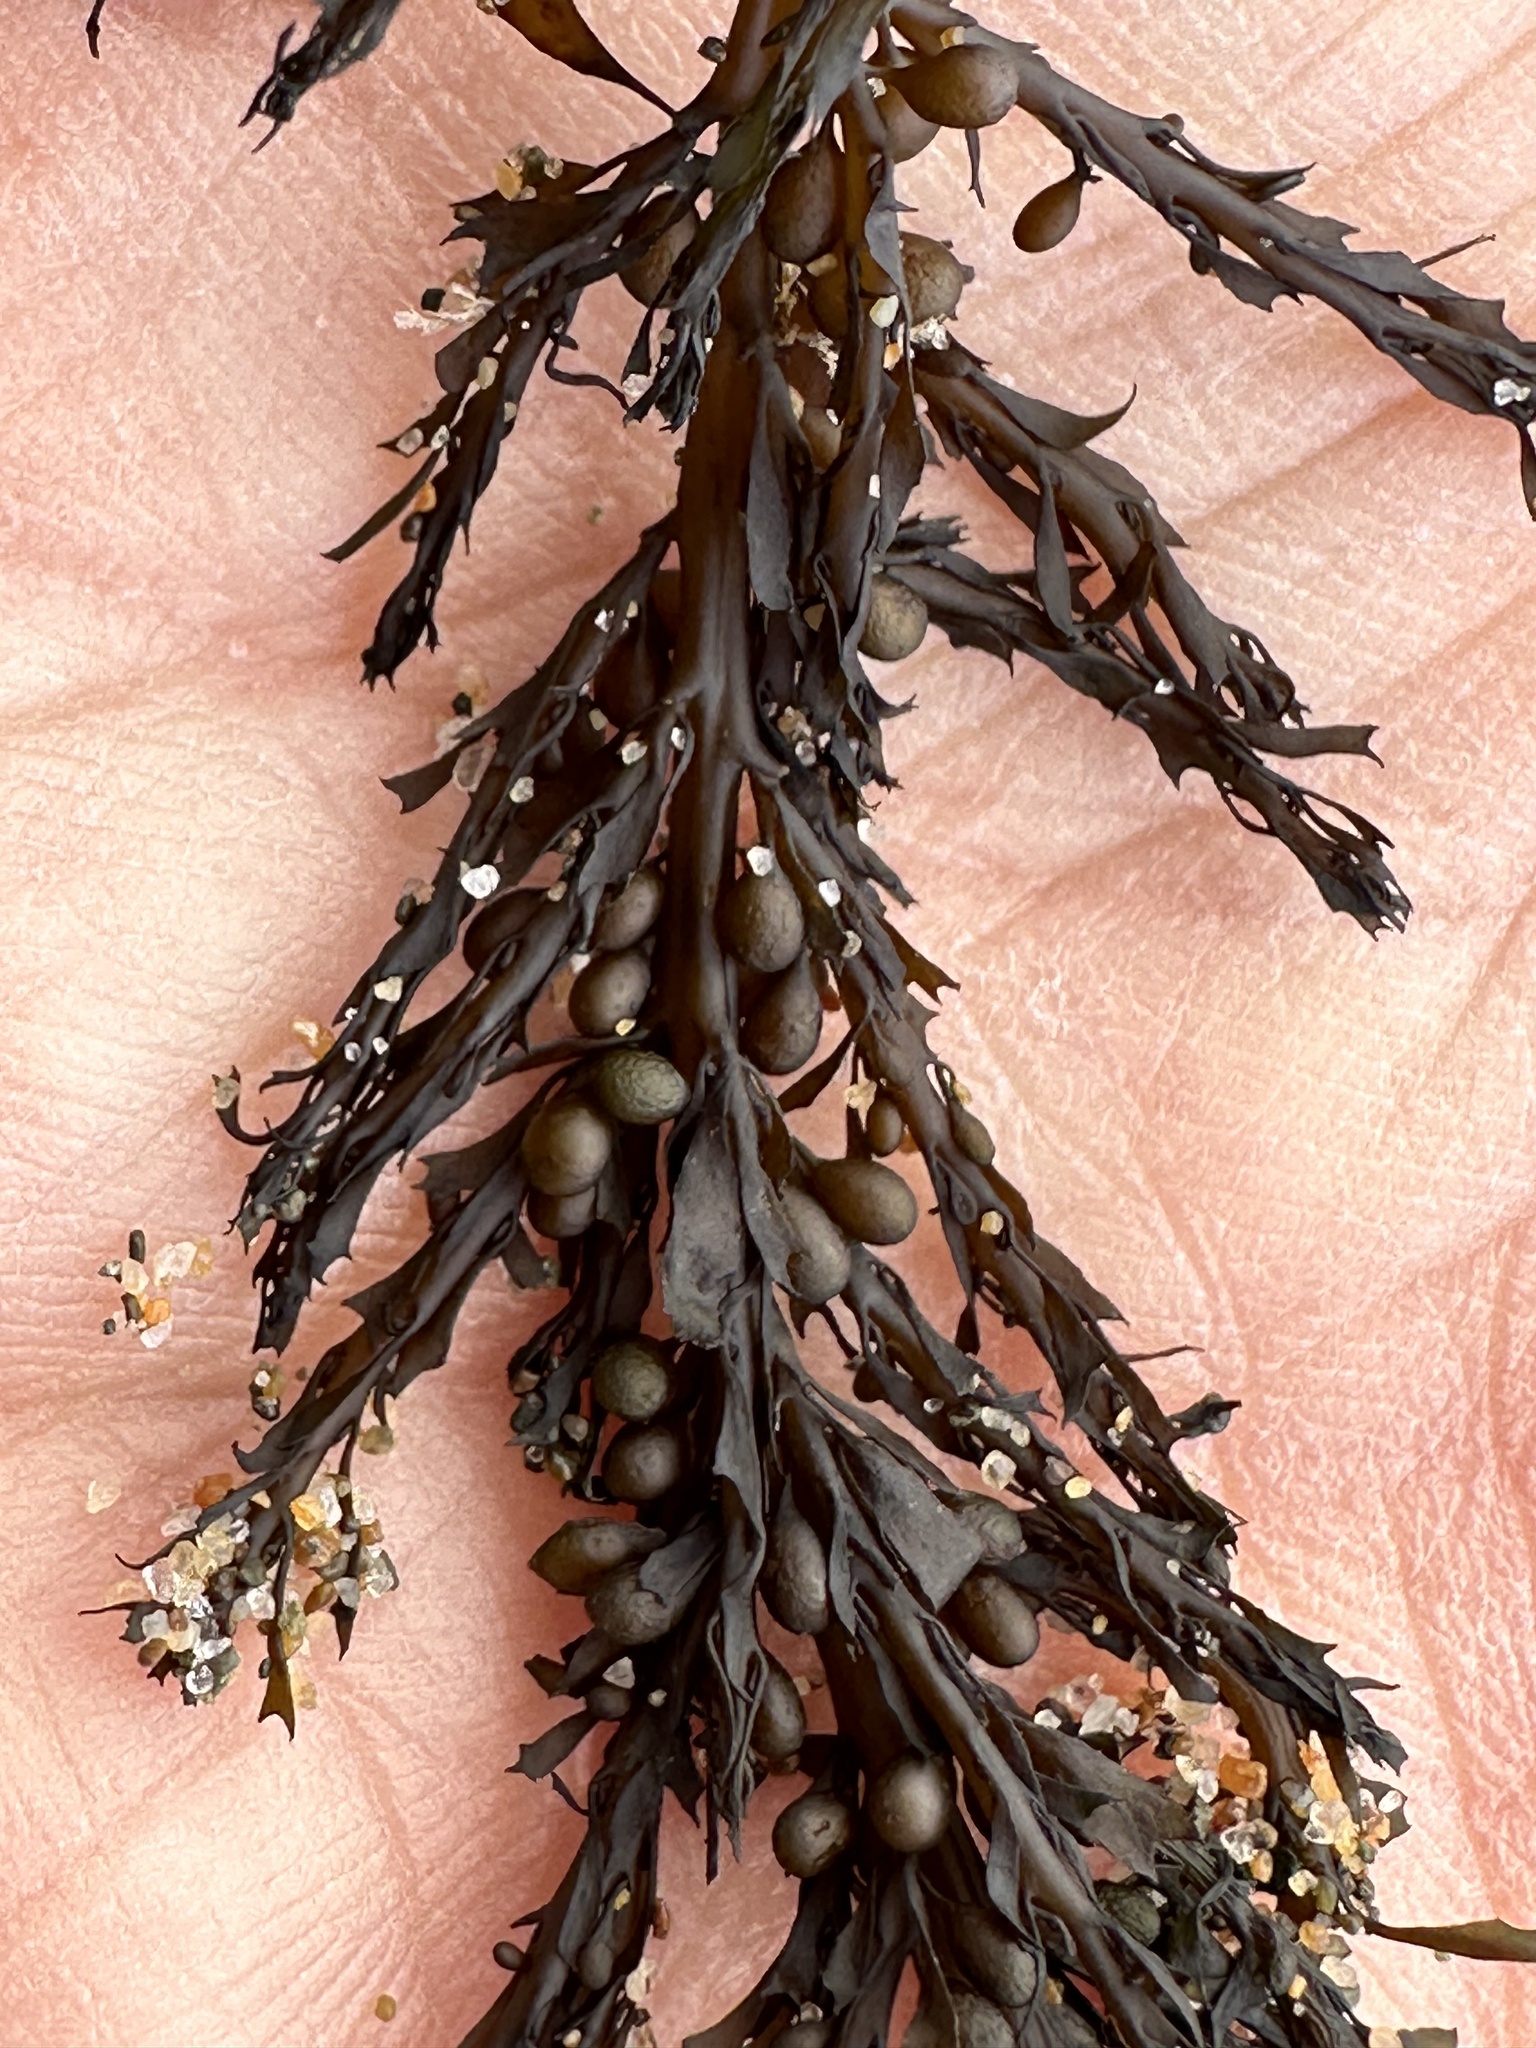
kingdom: Chromista
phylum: Ochrophyta
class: Phaeophyceae
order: Fucales
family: Sargassaceae
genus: Sargassum
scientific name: Sargassum muticum
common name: Japweed
